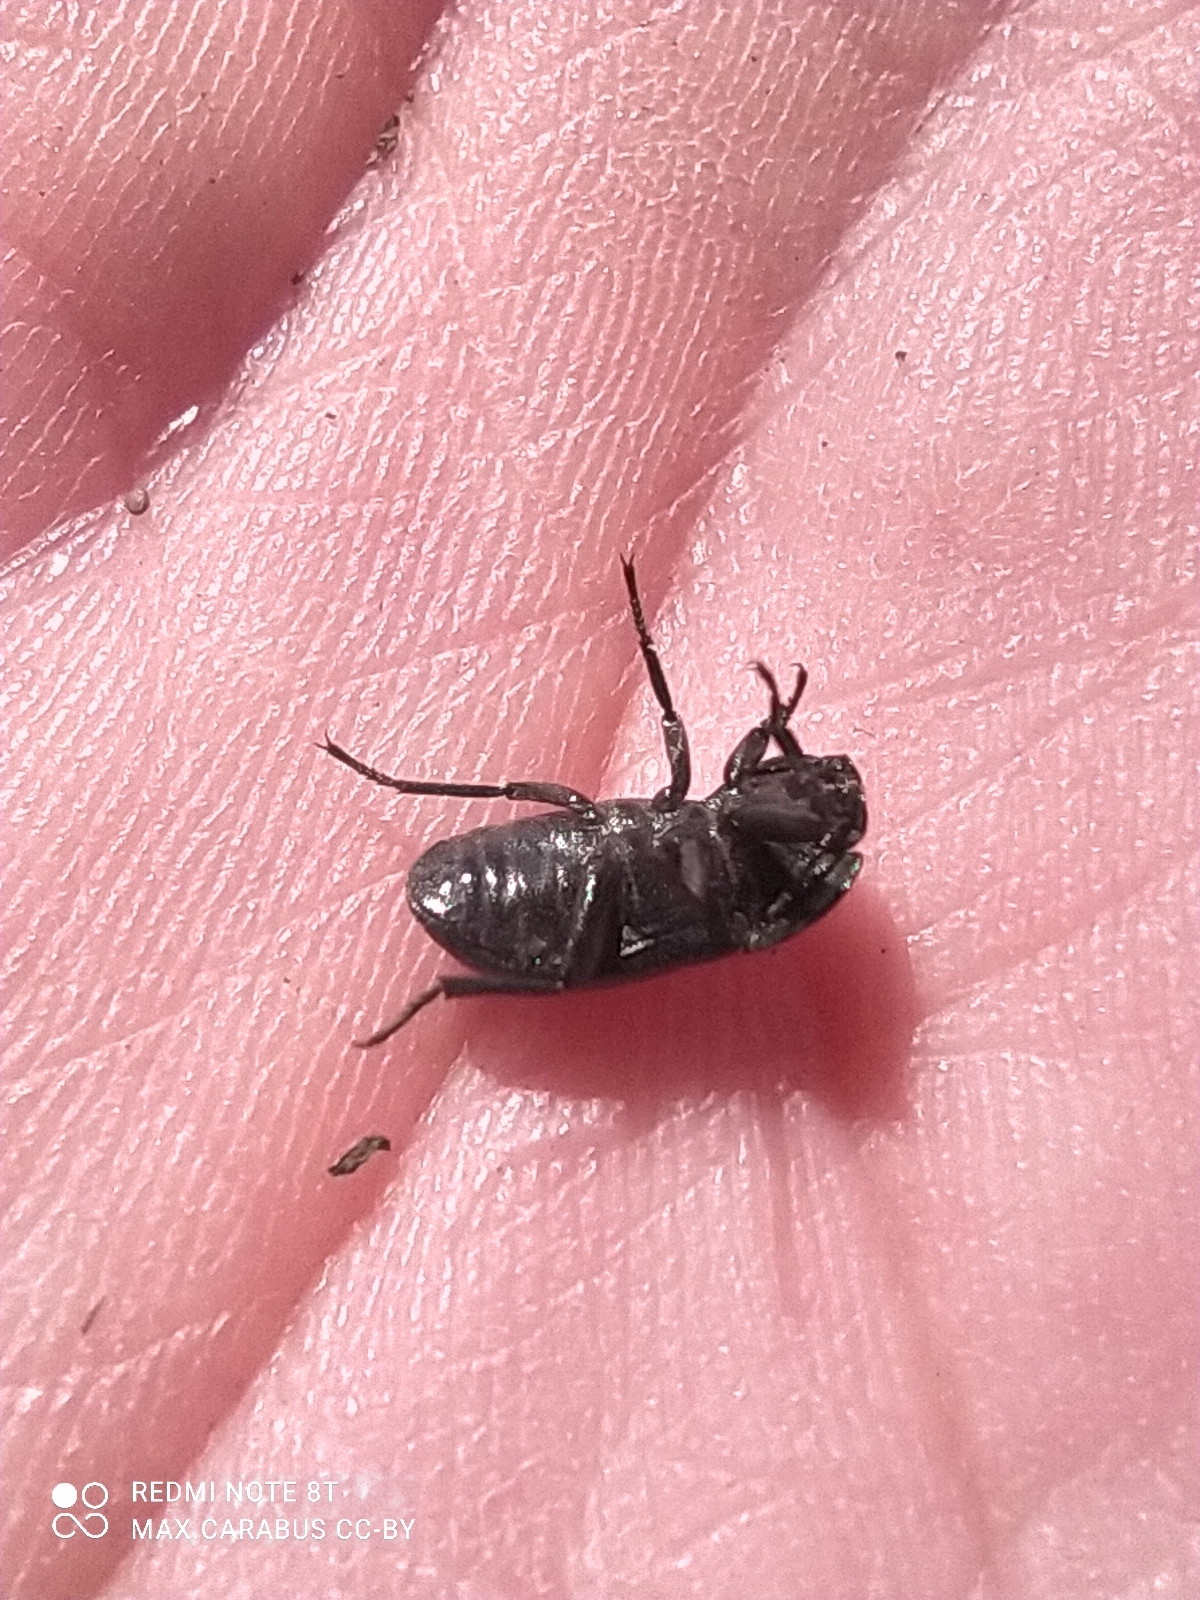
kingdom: Animalia
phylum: Arthropoda
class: Insecta
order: Coleoptera
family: Tenebrionidae
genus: Opatrum
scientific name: Opatrum sabulosum
